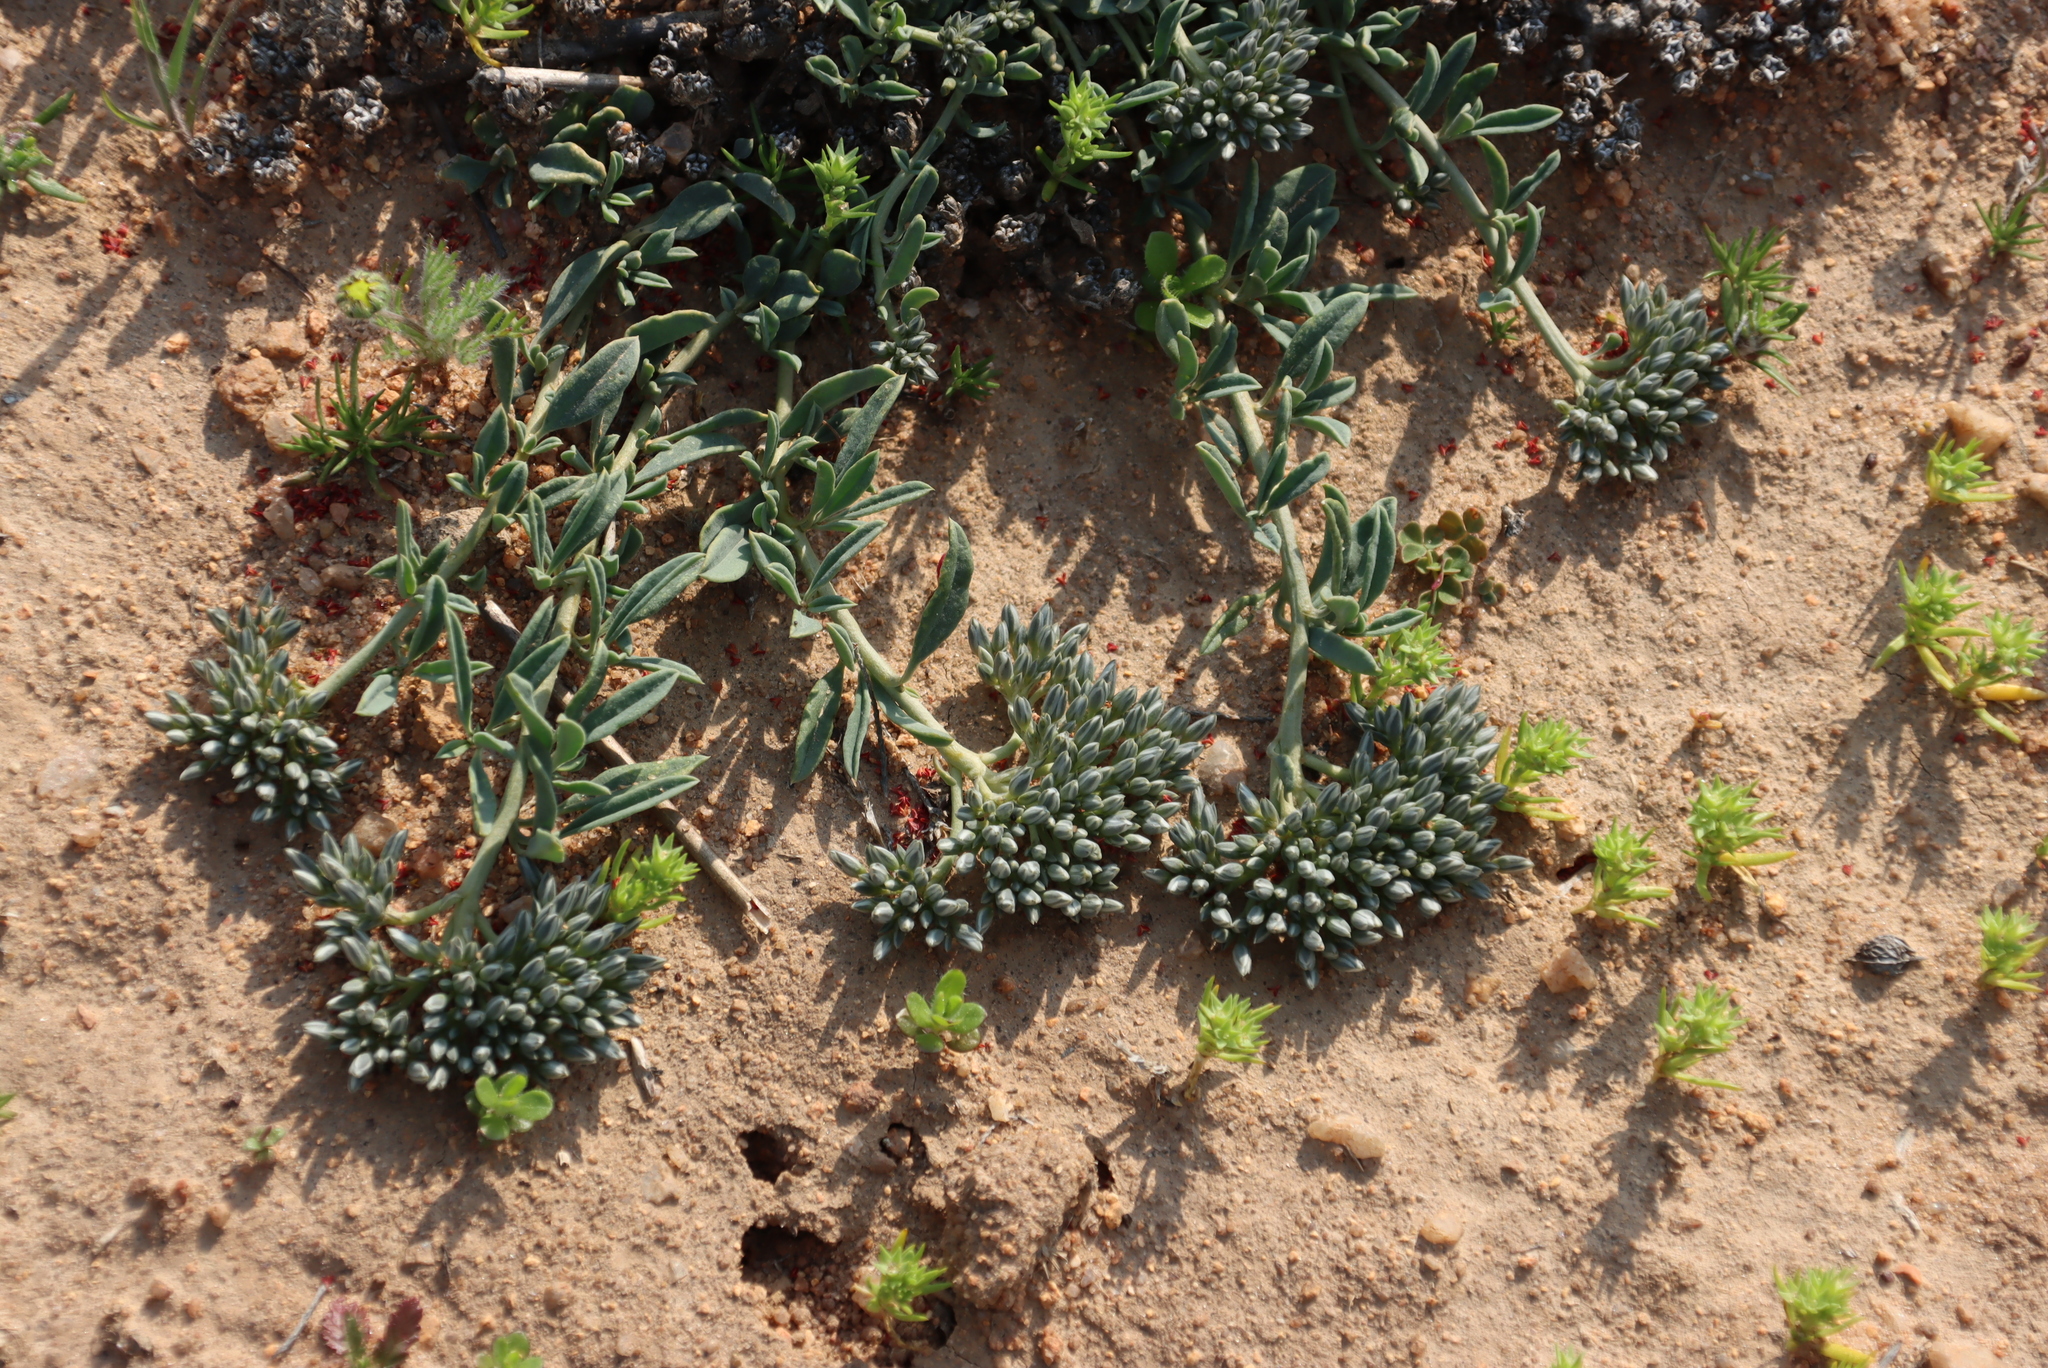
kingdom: Plantae
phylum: Tracheophyta
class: Magnoliopsida
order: Caryophyllales
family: Limeaceae
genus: Limeum
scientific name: Limeum africanum
